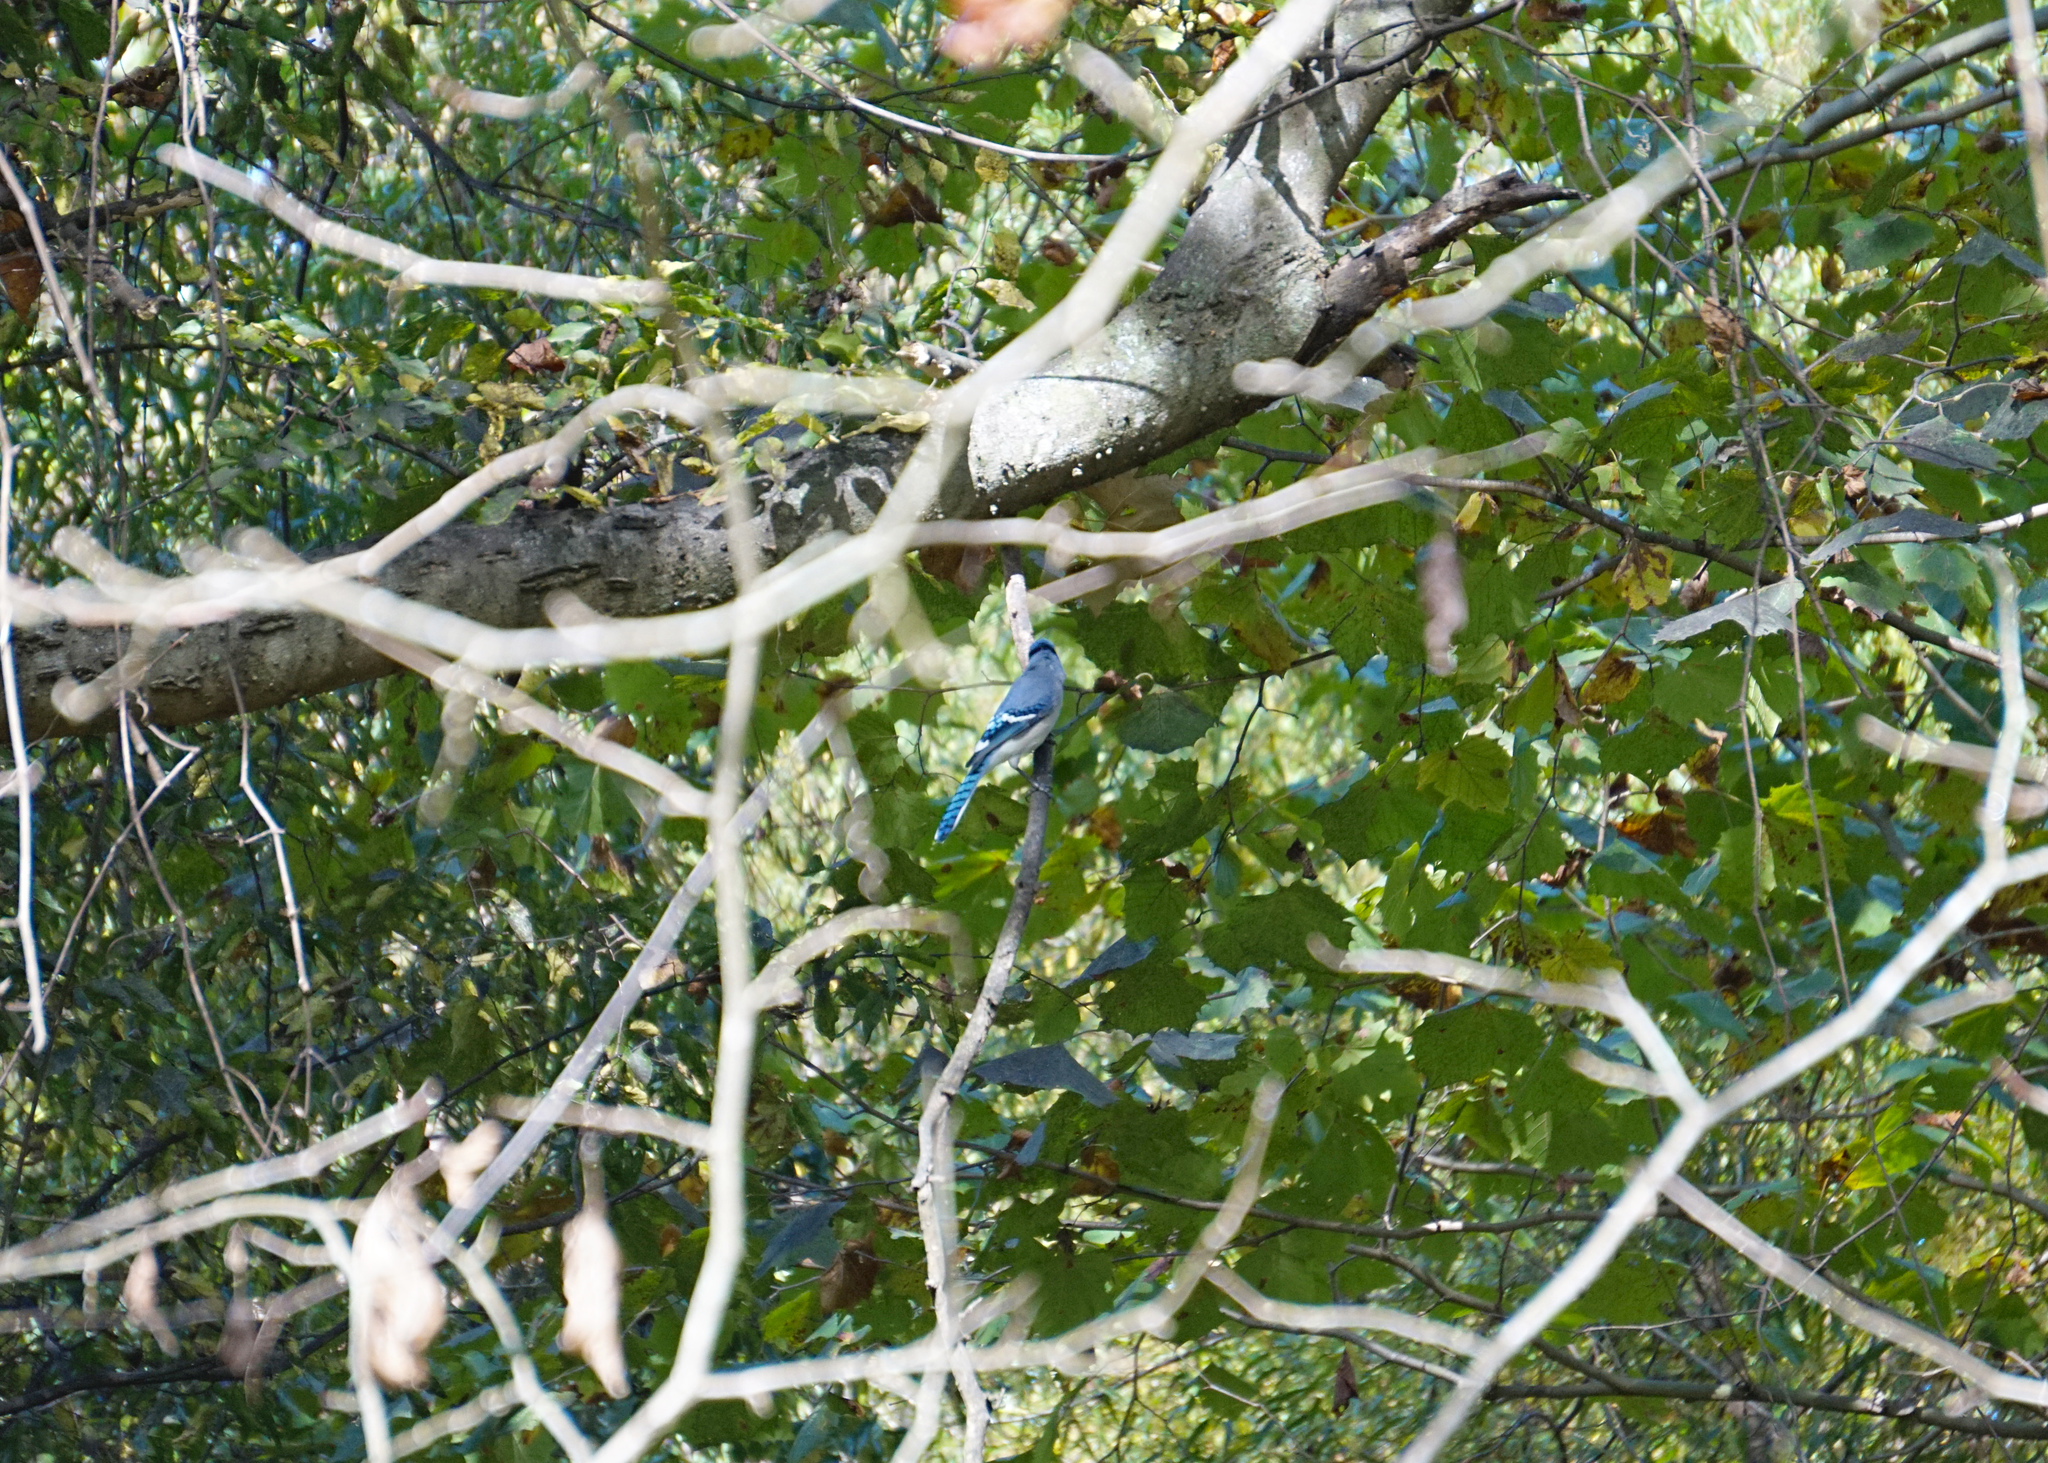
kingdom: Animalia
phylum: Chordata
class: Aves
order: Passeriformes
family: Corvidae
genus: Cyanocitta
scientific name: Cyanocitta cristata
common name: Blue jay
